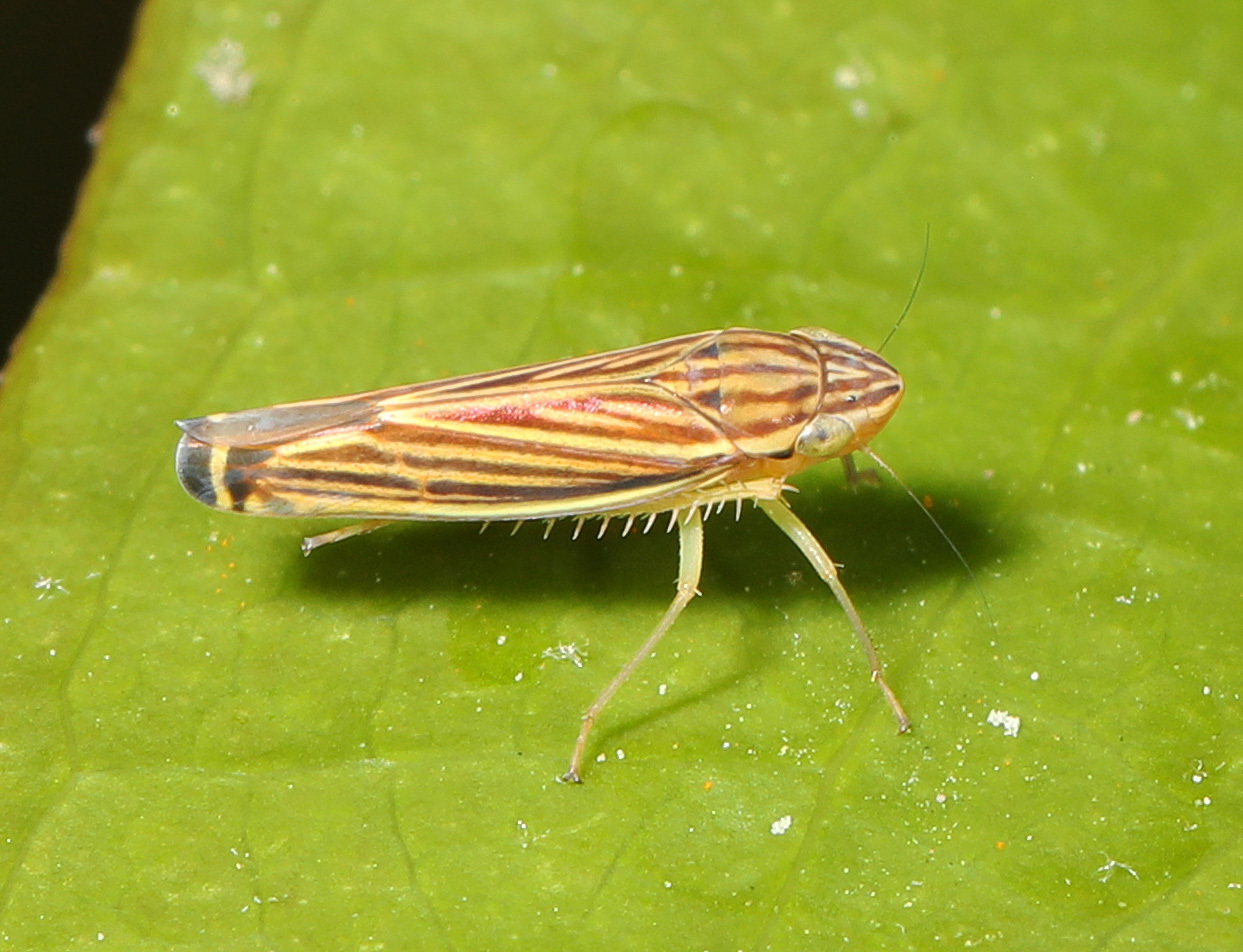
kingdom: Animalia
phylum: Arthropoda
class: Insecta
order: Hemiptera
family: Cicadellidae
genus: Sibovia
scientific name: Sibovia occatoria
